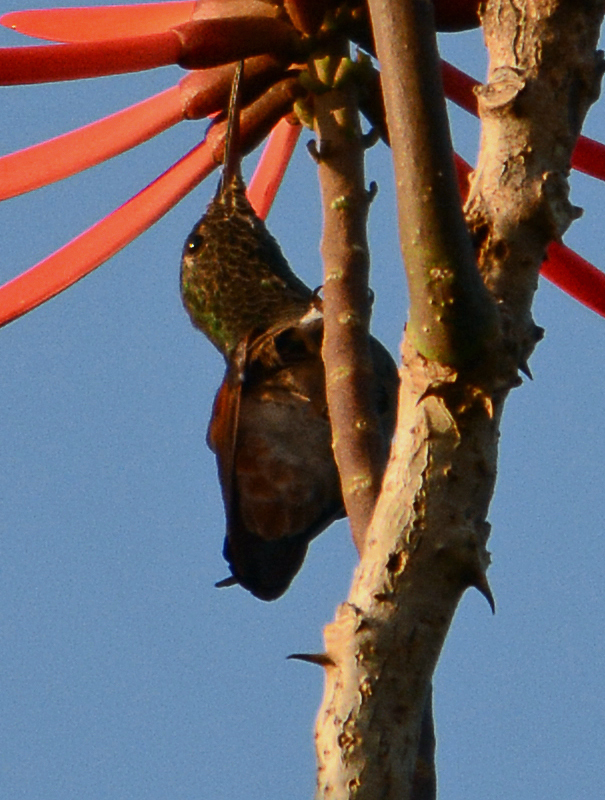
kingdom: Animalia
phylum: Chordata
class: Aves
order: Apodiformes
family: Trochilidae
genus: Saucerottia
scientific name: Saucerottia beryllina
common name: Berylline hummingbird
